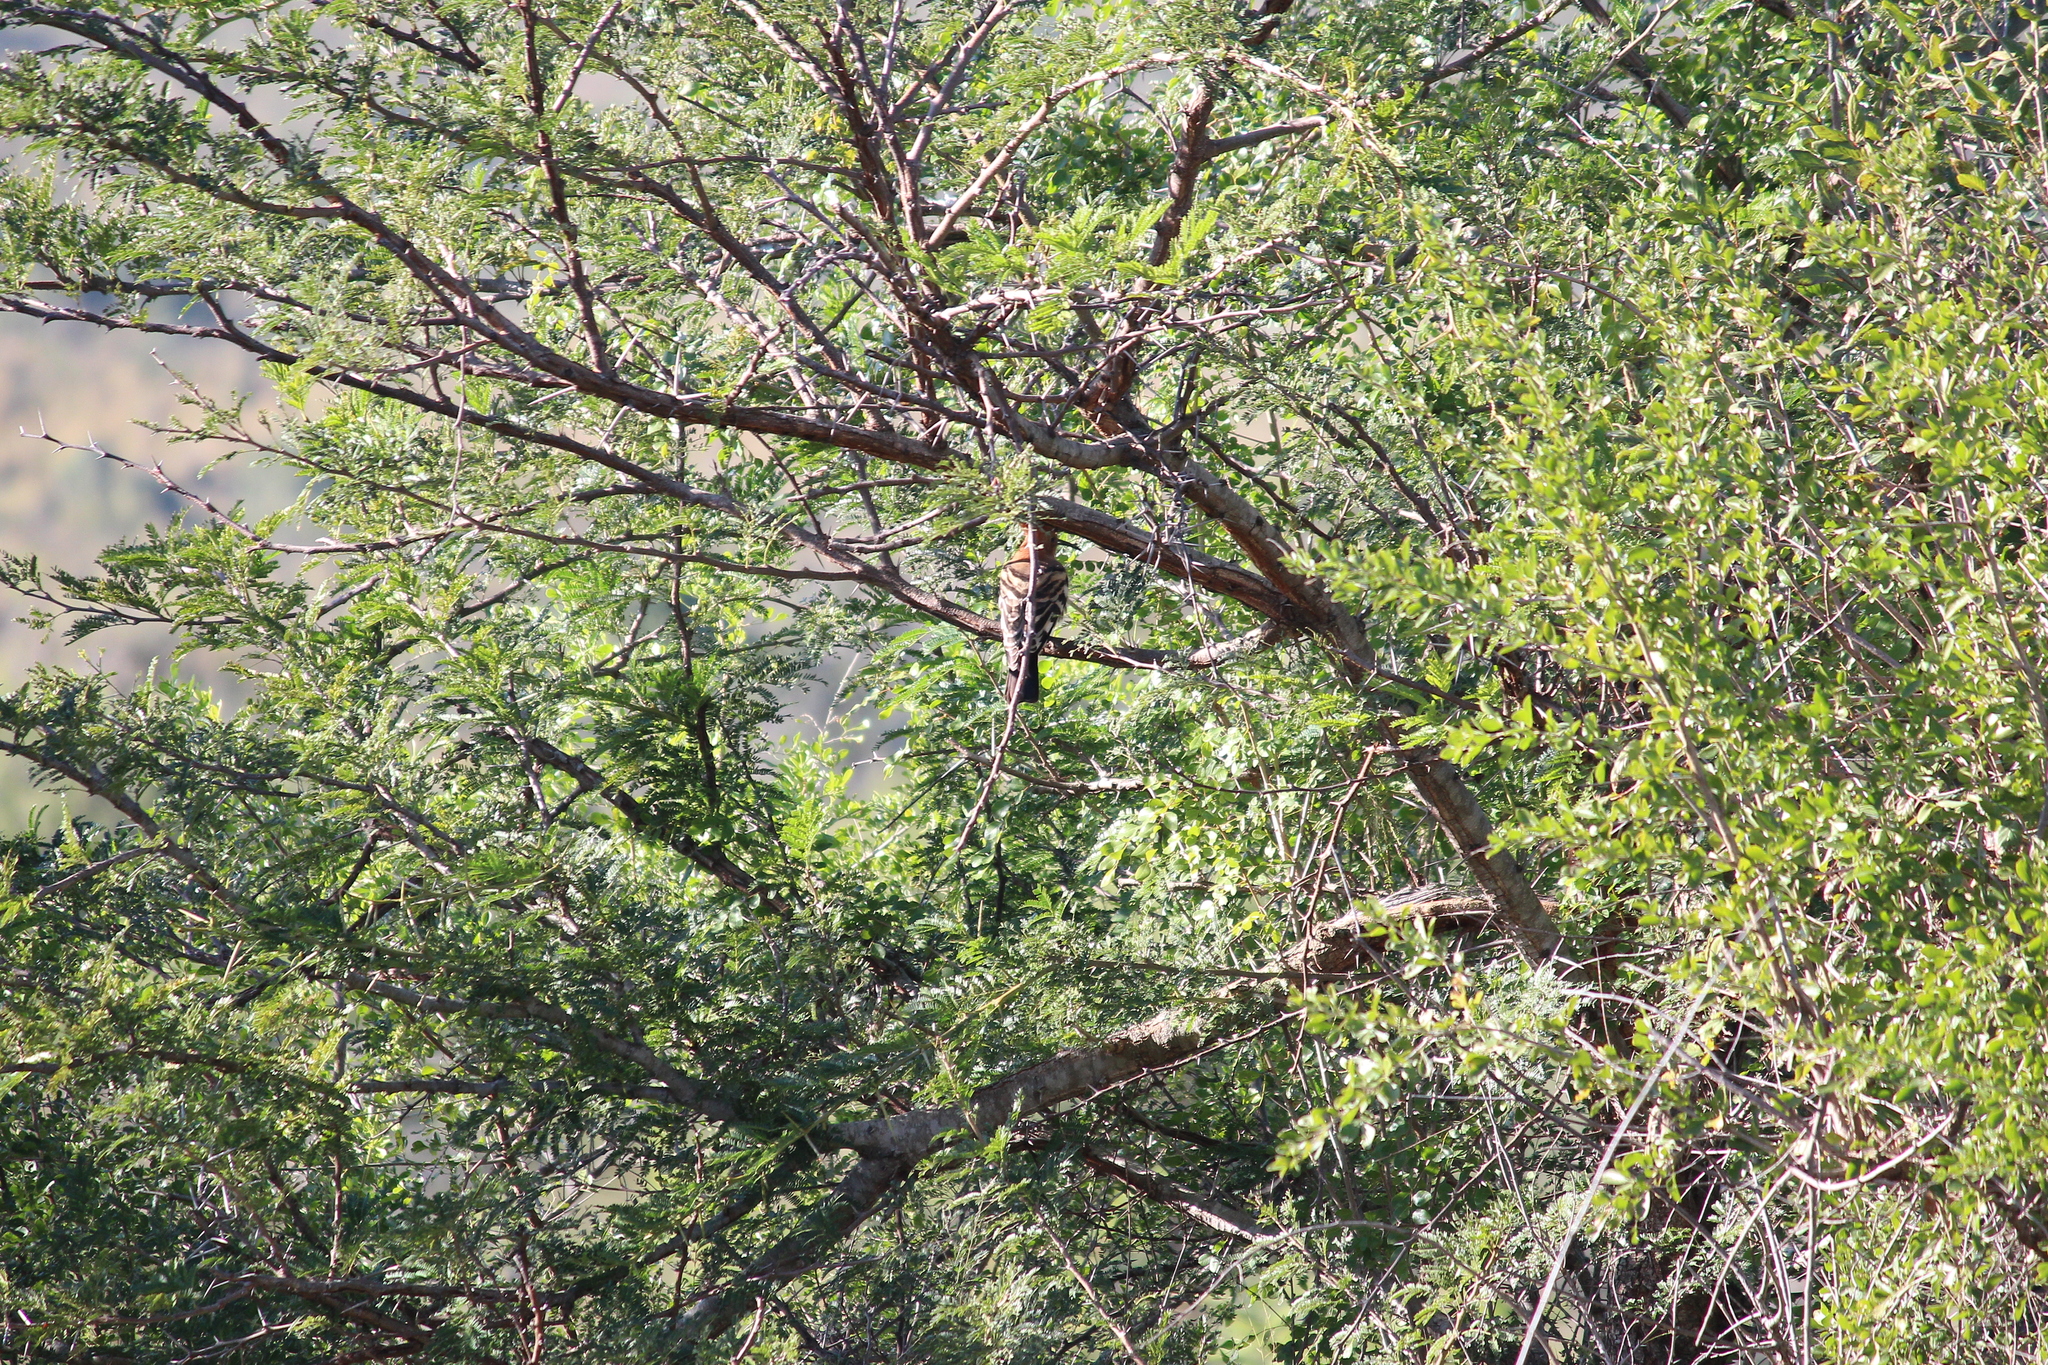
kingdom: Animalia
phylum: Chordata
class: Aves
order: Bucerotiformes
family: Upupidae
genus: Upupa
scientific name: Upupa africana
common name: African hoopoe
